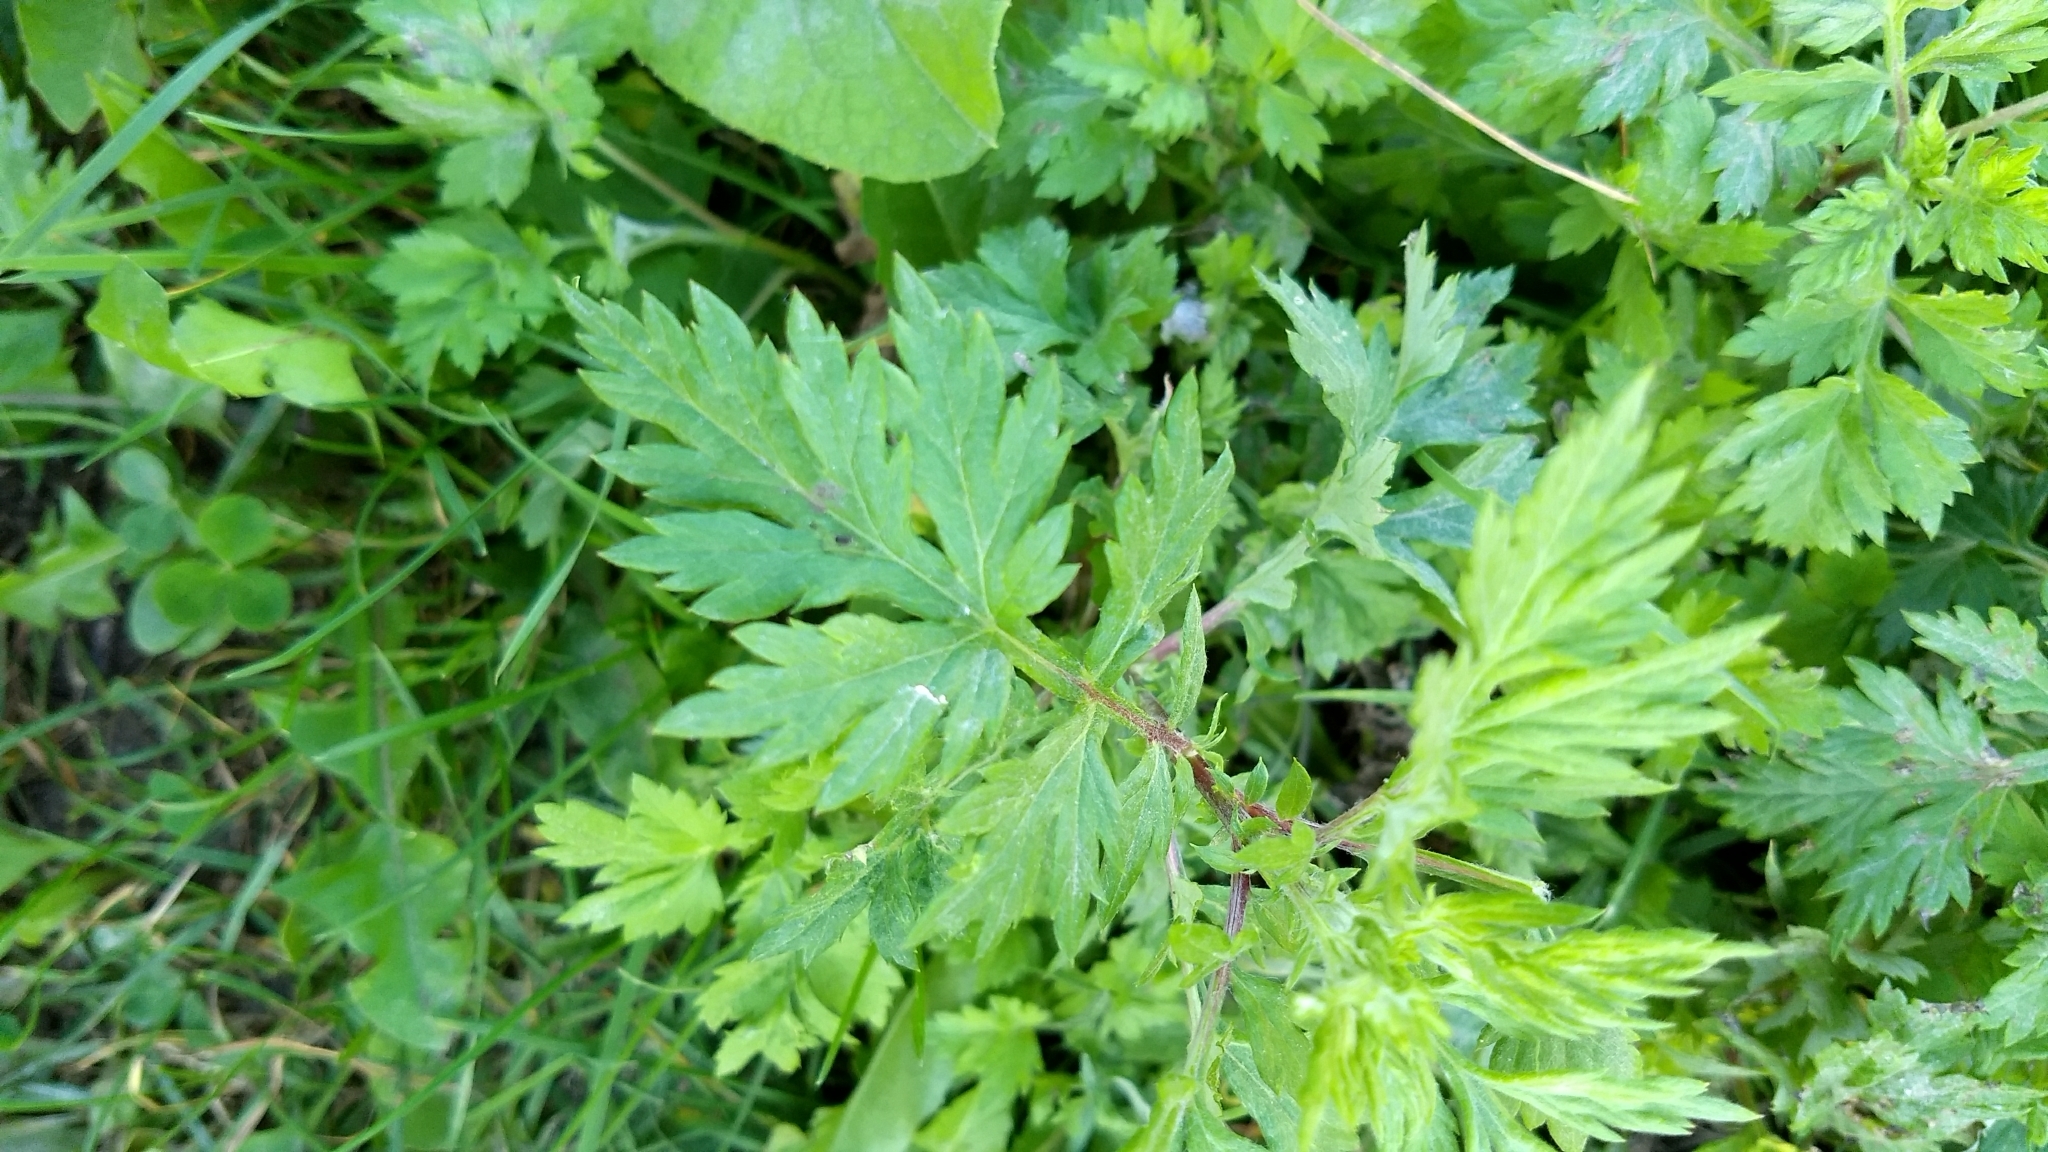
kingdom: Plantae
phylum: Tracheophyta
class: Magnoliopsida
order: Asterales
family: Asteraceae
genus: Artemisia
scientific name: Artemisia vulgaris
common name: Mugwort
